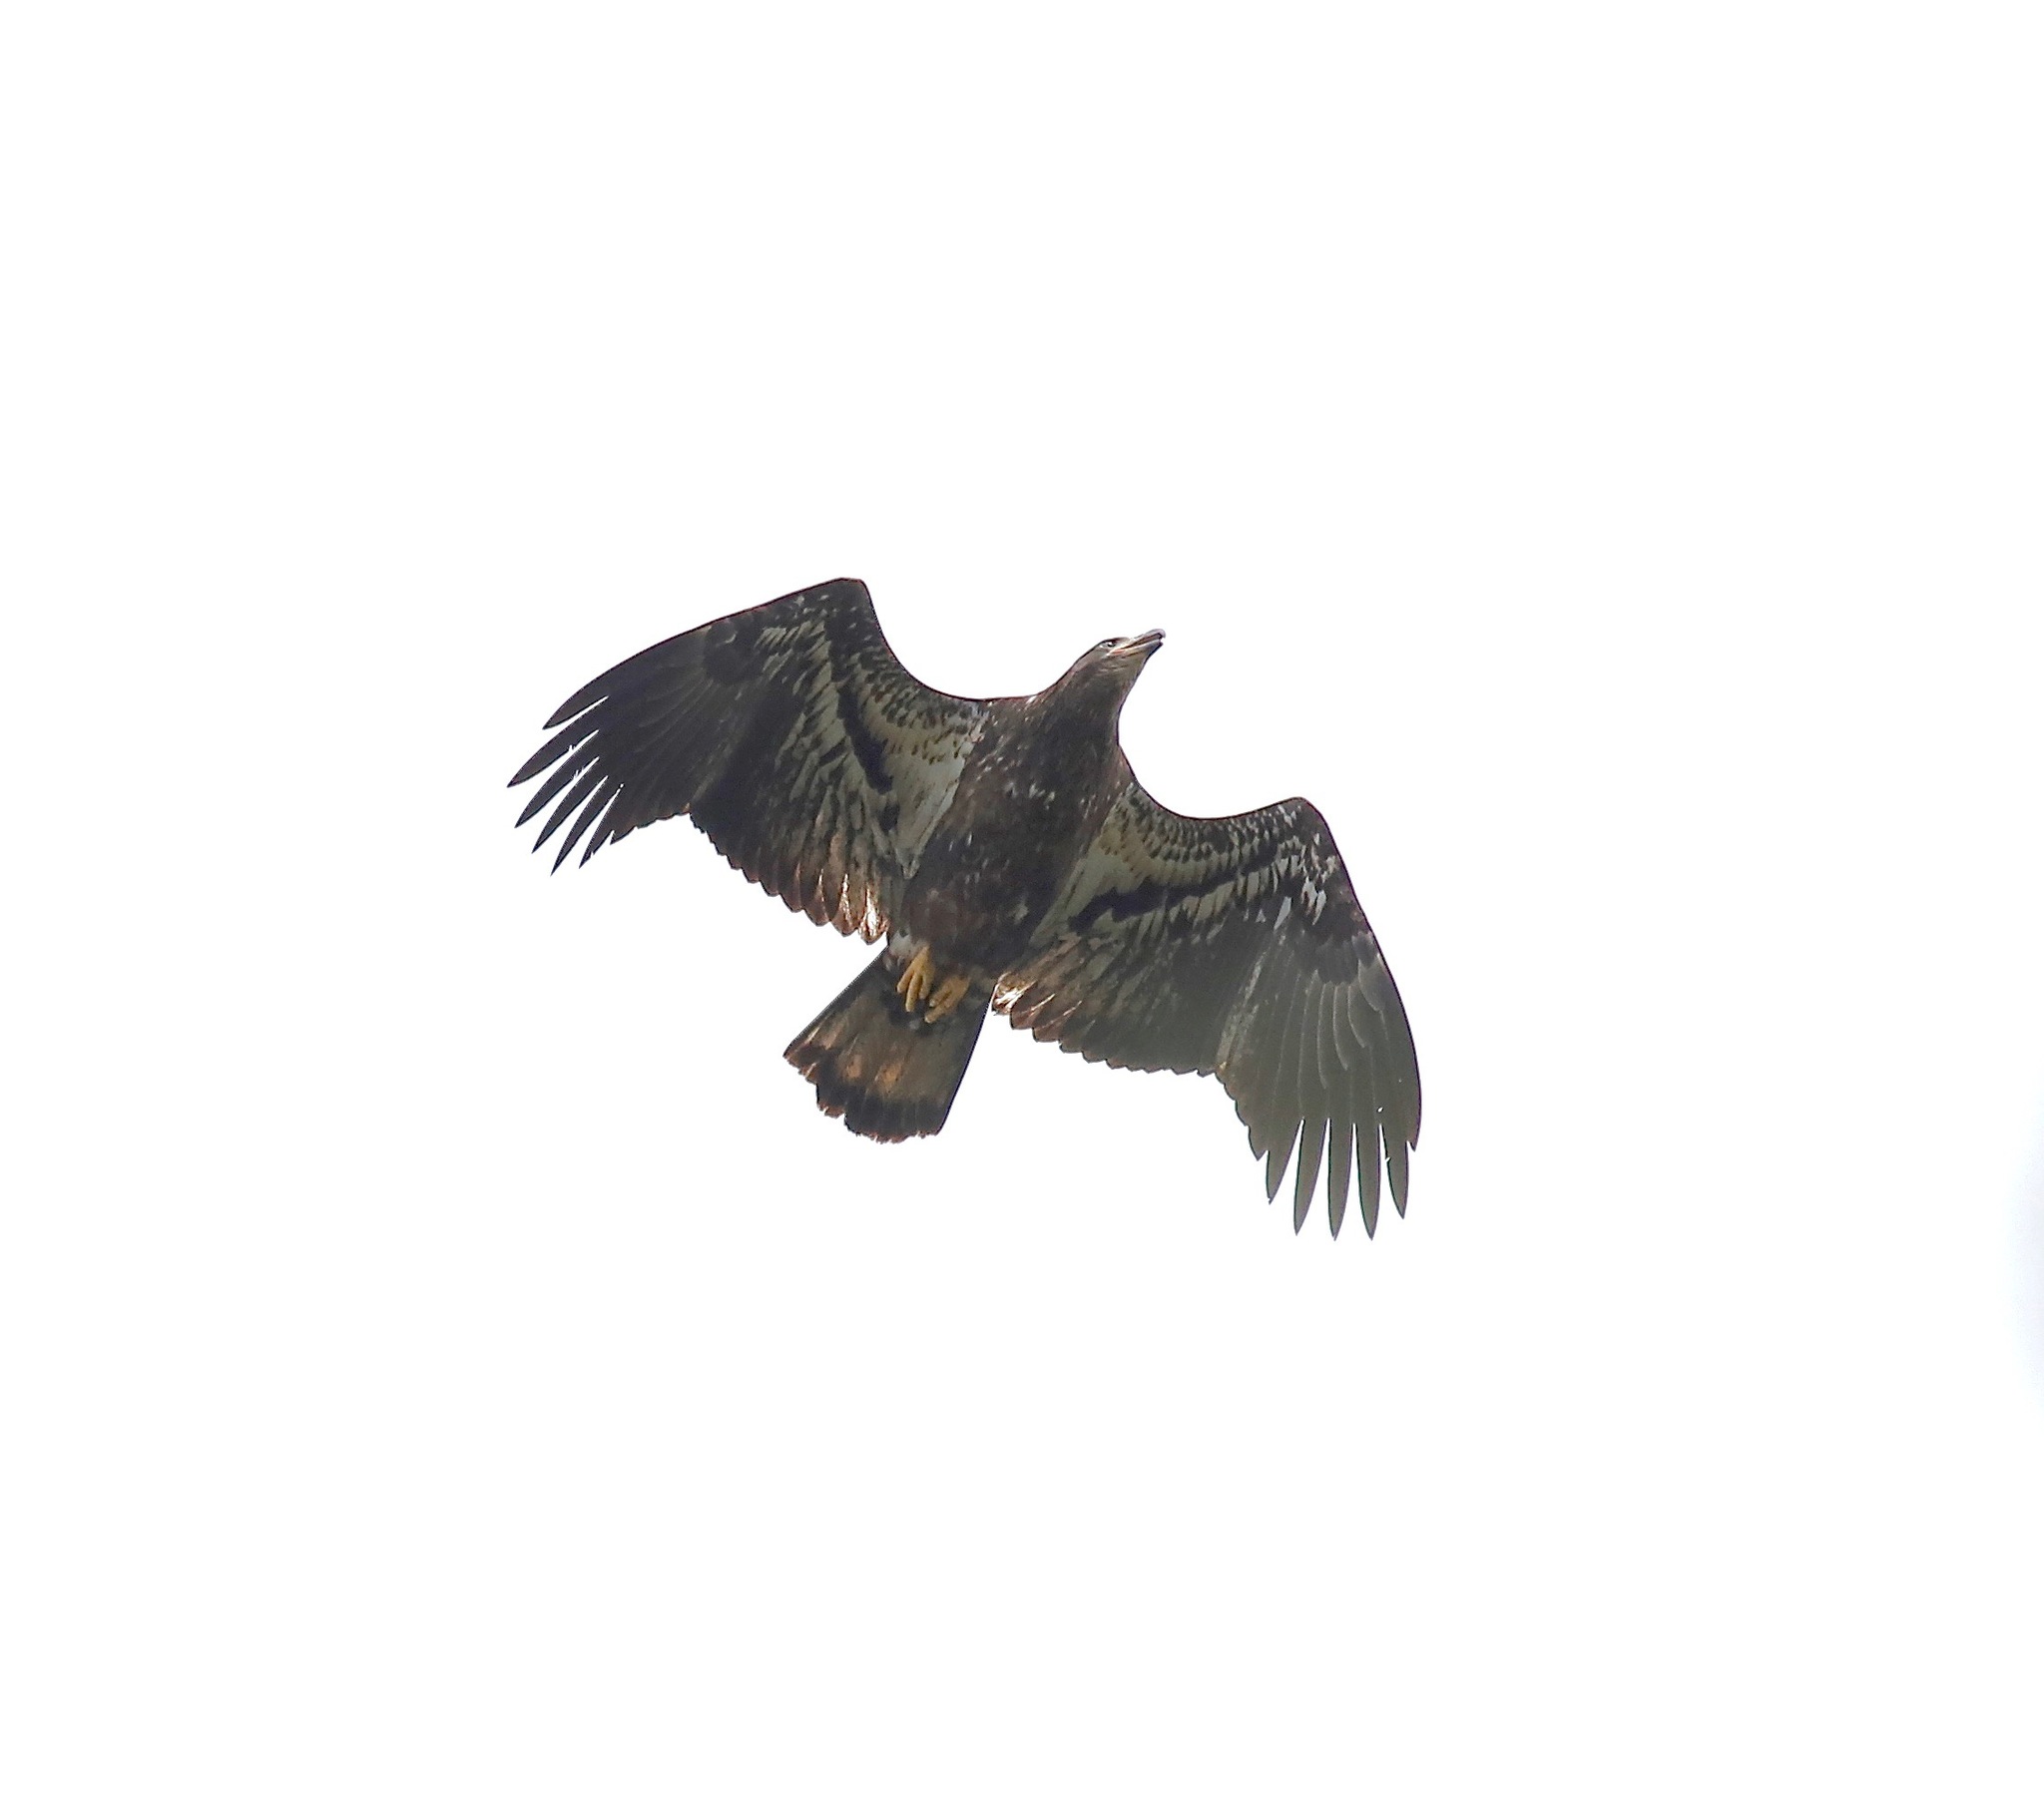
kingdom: Animalia
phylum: Chordata
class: Aves
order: Accipitriformes
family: Accipitridae
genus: Haliaeetus
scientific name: Haliaeetus leucocephalus
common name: Bald eagle
